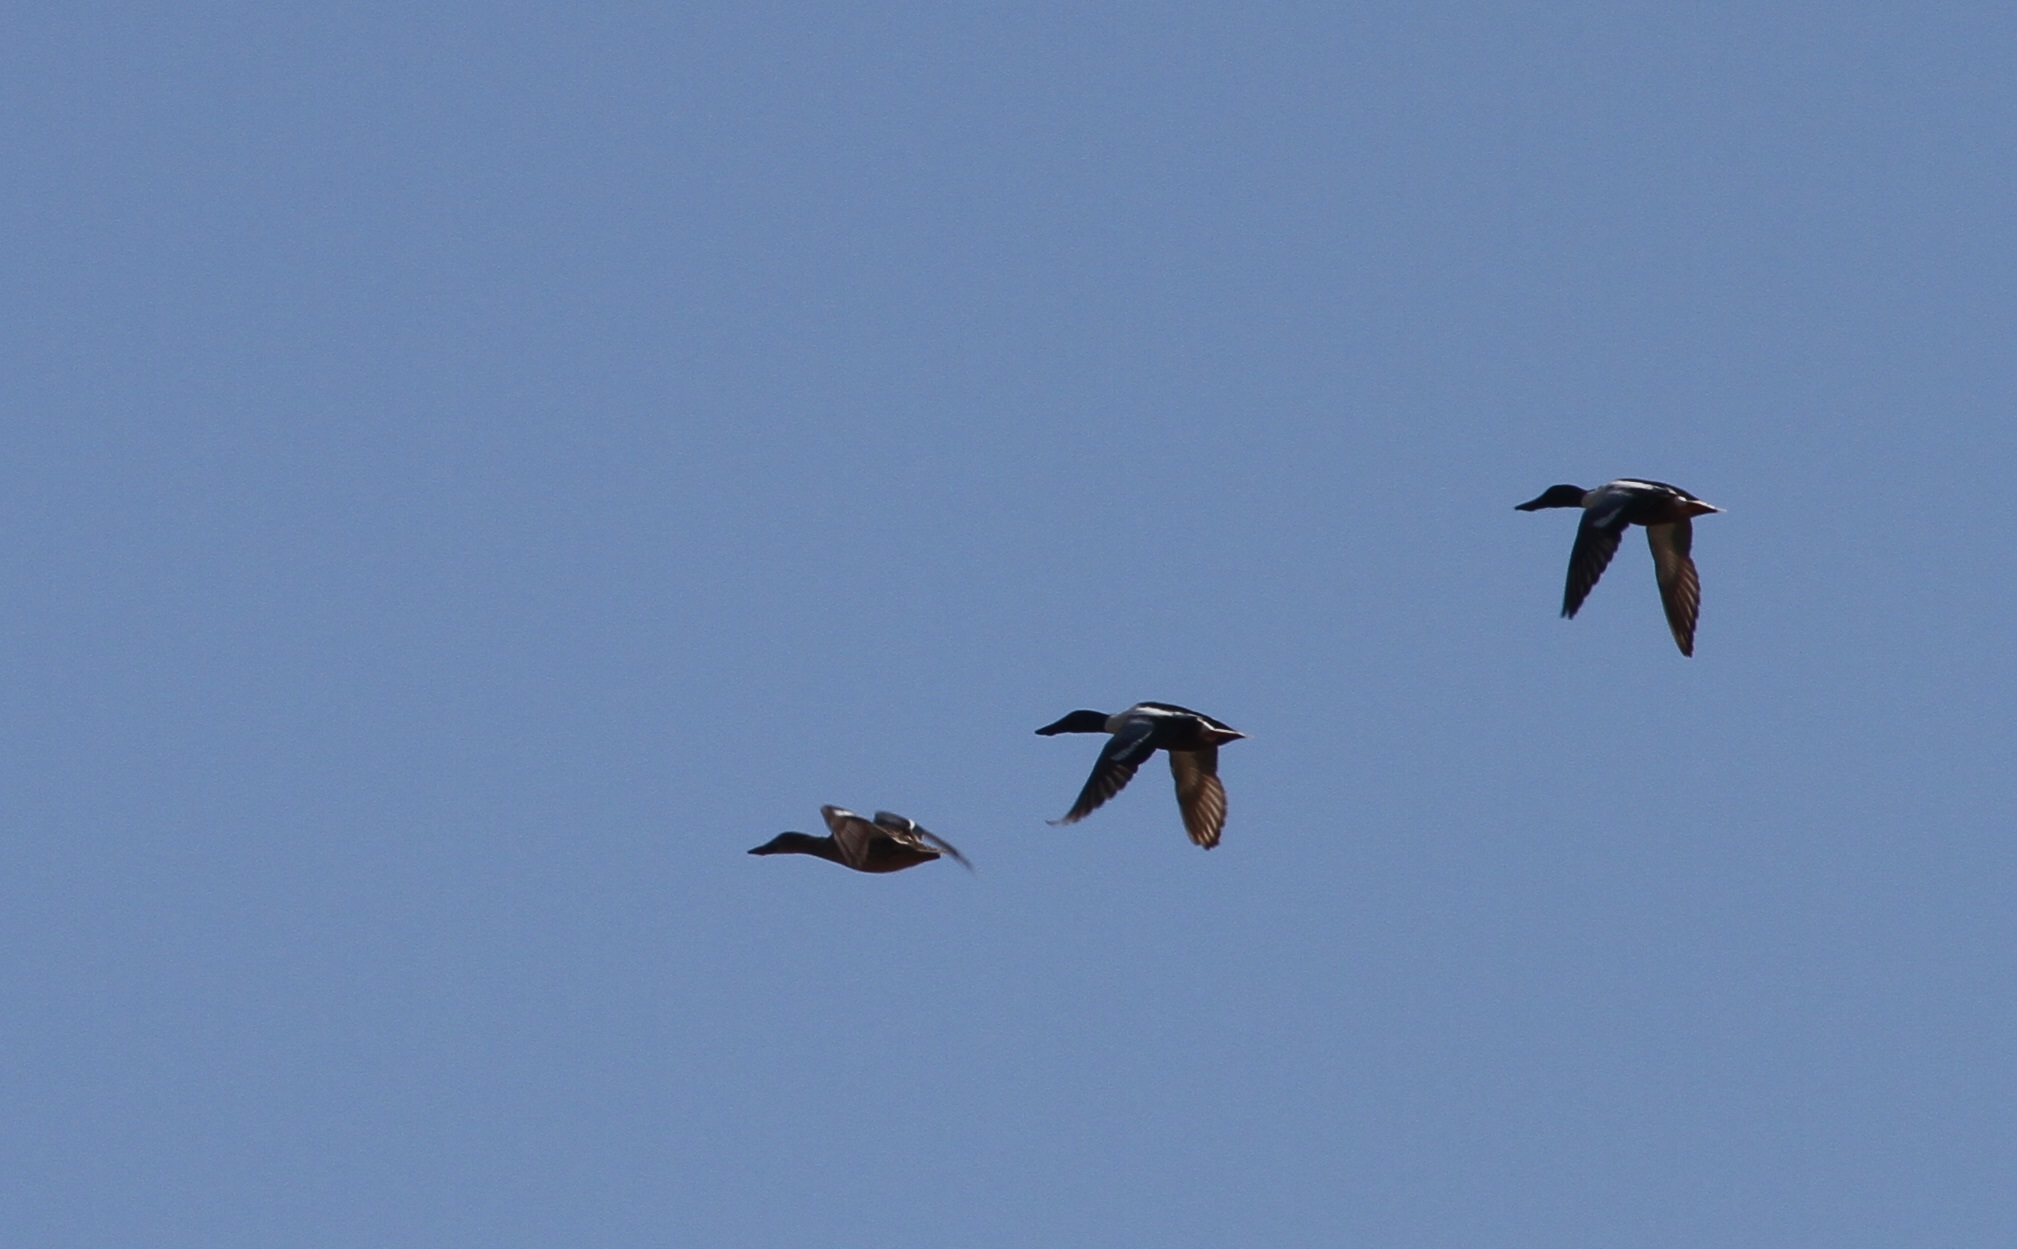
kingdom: Animalia
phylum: Chordata
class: Aves
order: Anseriformes
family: Anatidae
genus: Spatula
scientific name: Spatula clypeata
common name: Northern shoveler
